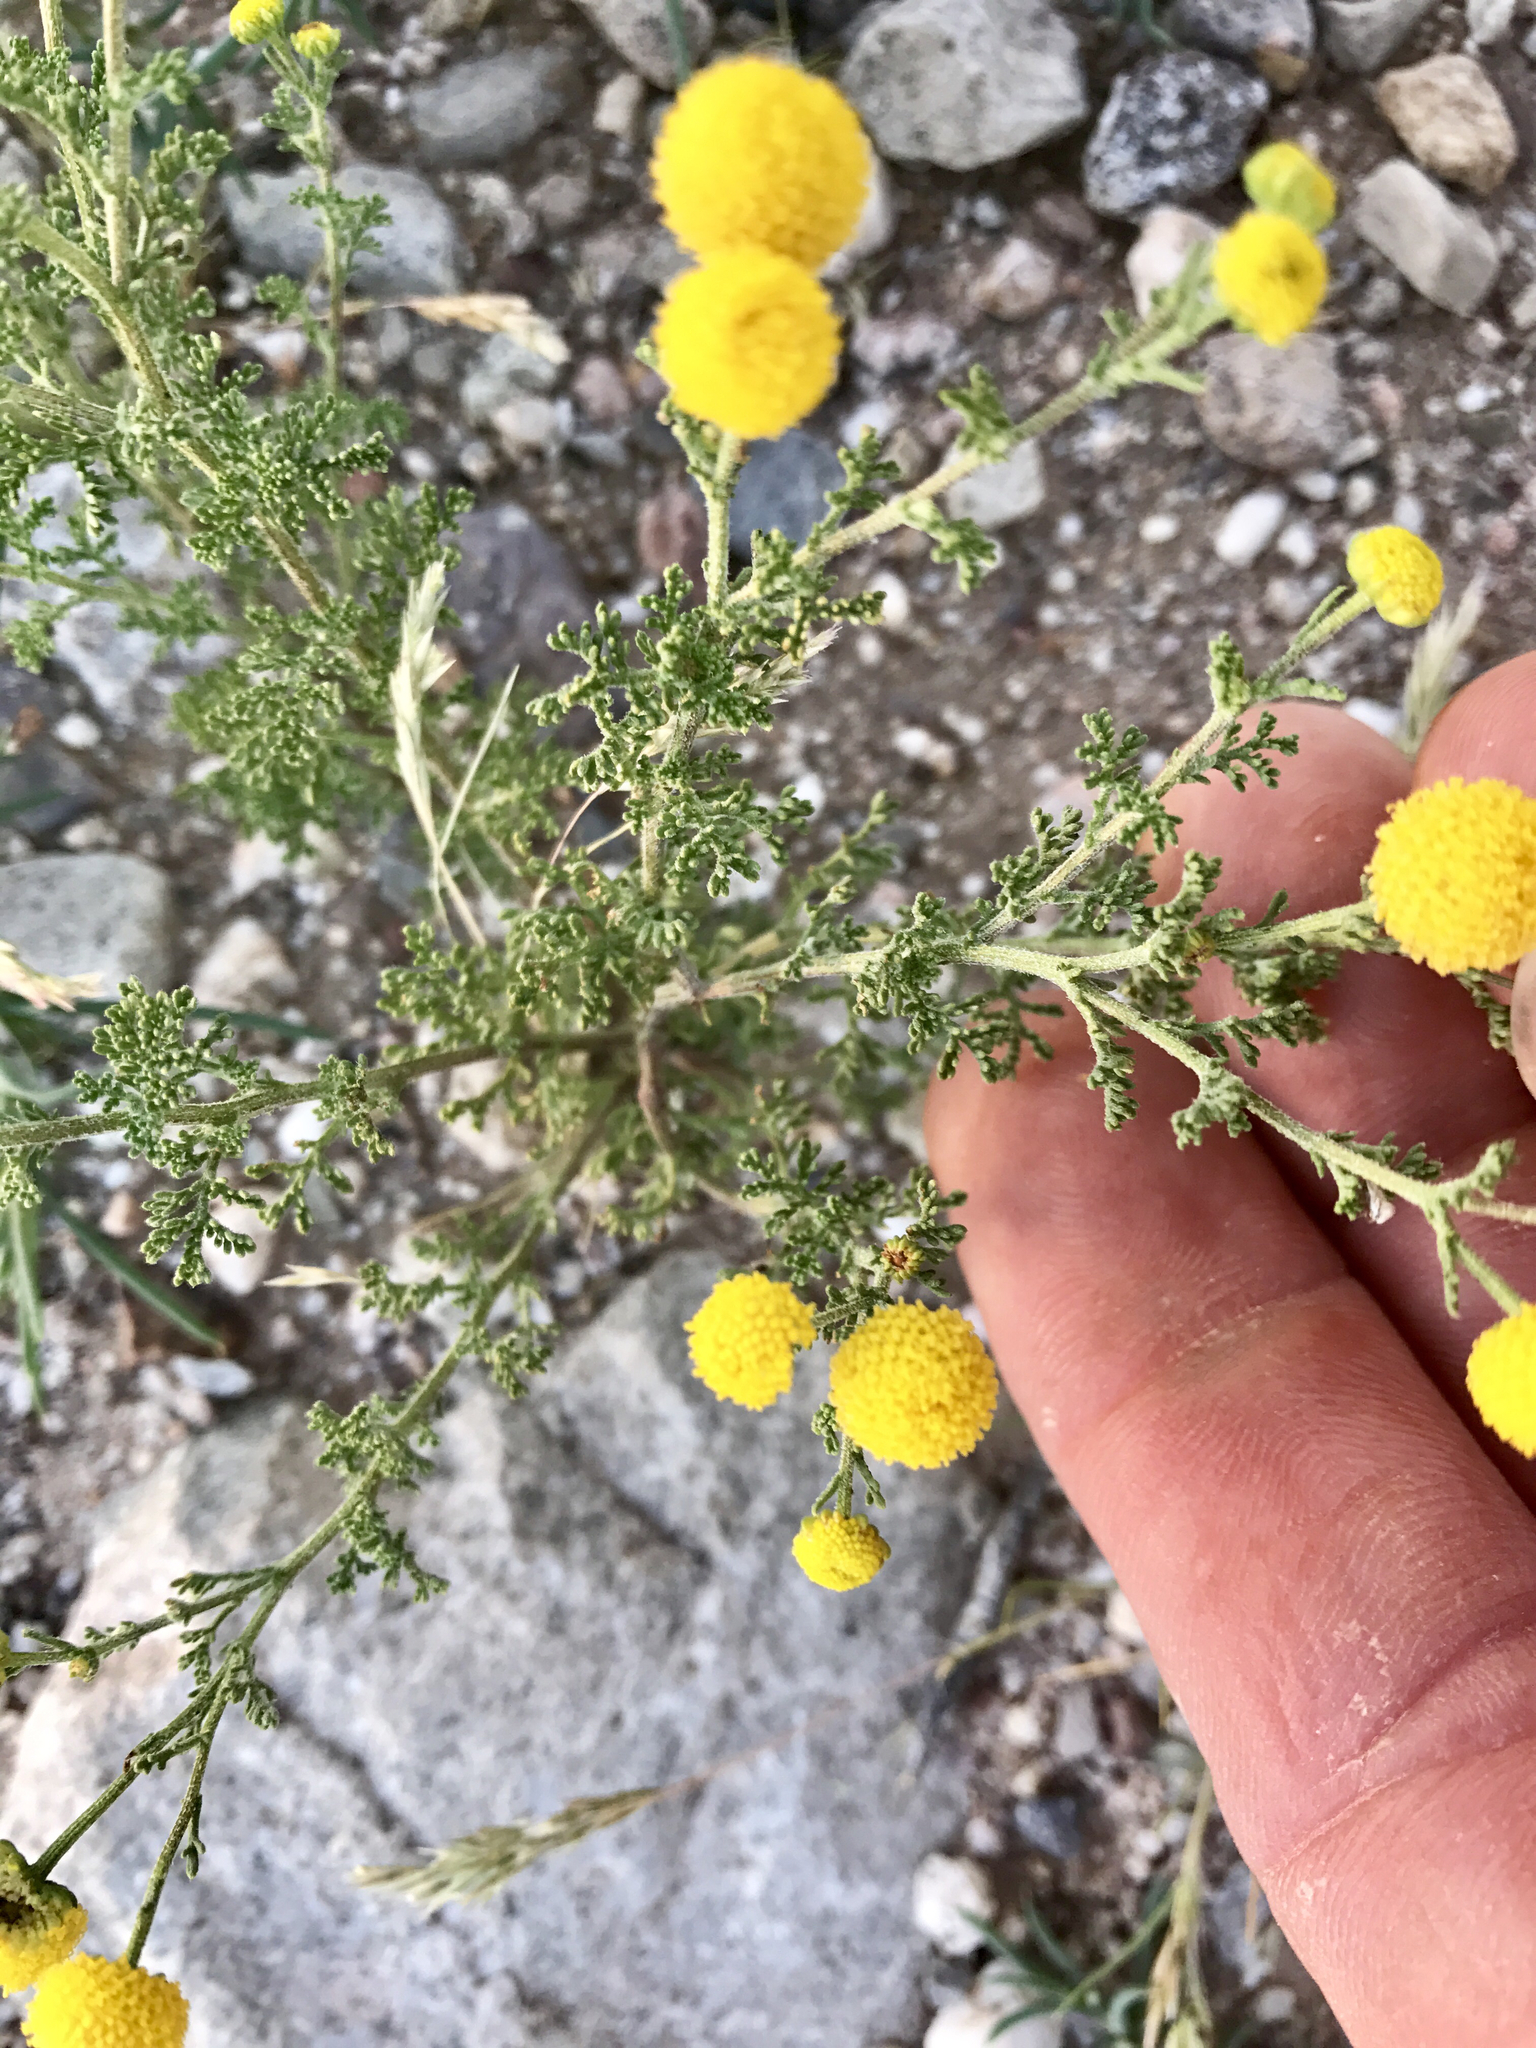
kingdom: Plantae
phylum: Tracheophyta
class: Magnoliopsida
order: Asterales
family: Asteraceae
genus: Oncosiphon
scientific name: Oncosiphon pilulifer
